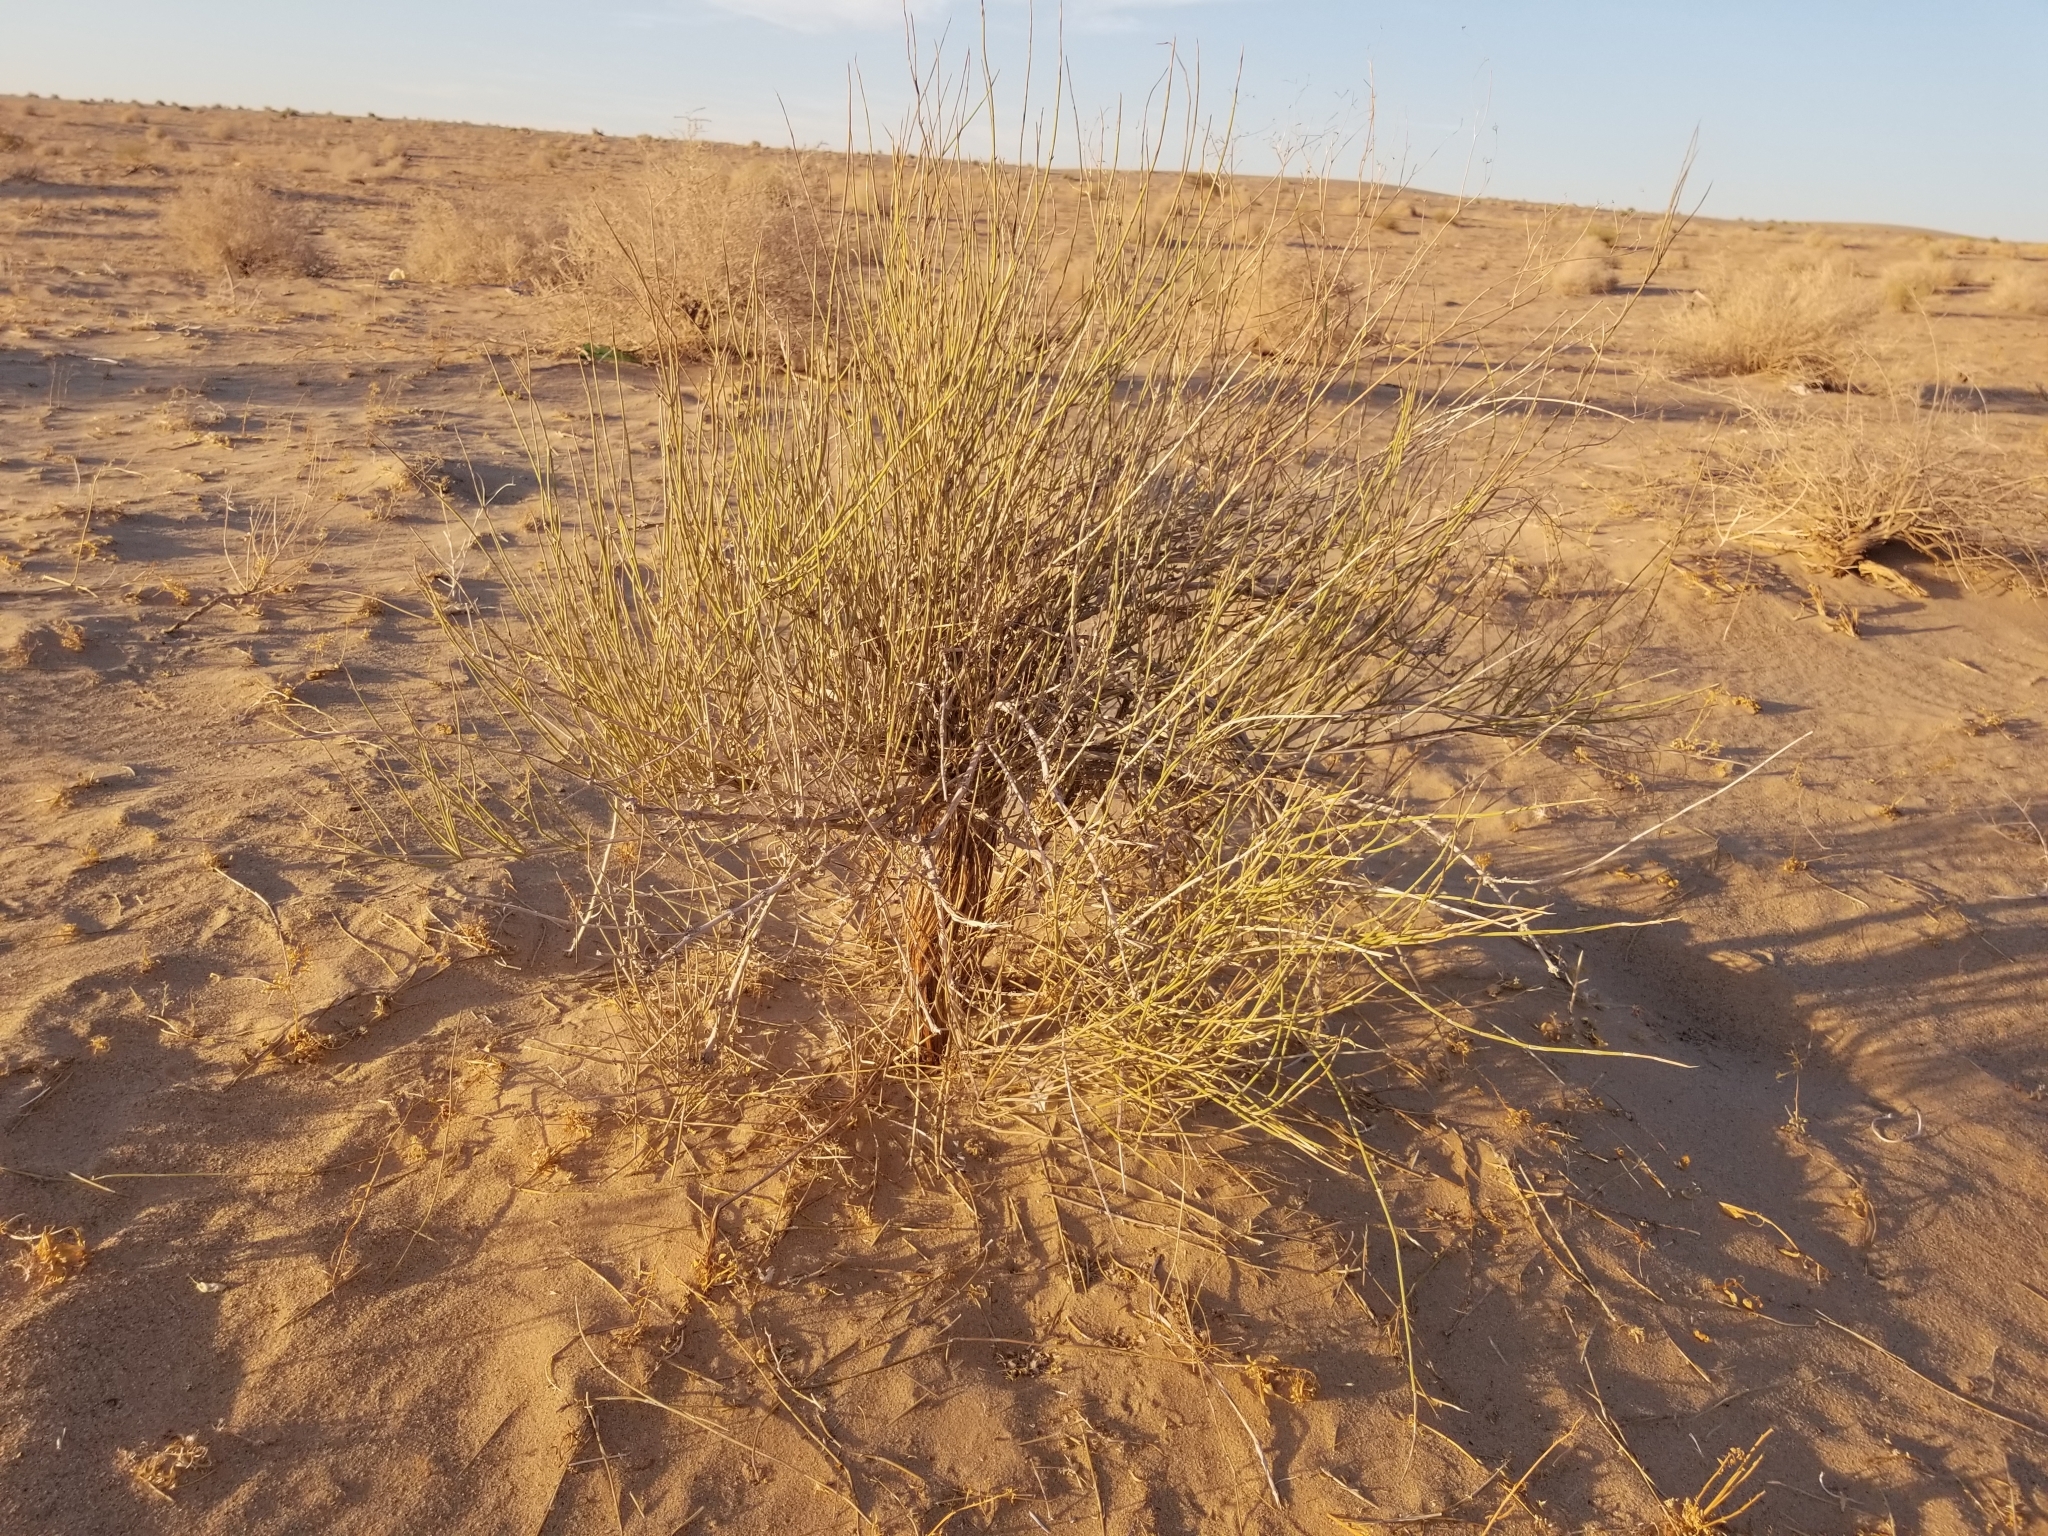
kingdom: Plantae
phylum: Tracheophyta
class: Gnetopsida
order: Ephedrales
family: Ephedraceae
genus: Ephedra
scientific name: Ephedra trifurca
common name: Mexican-tea
